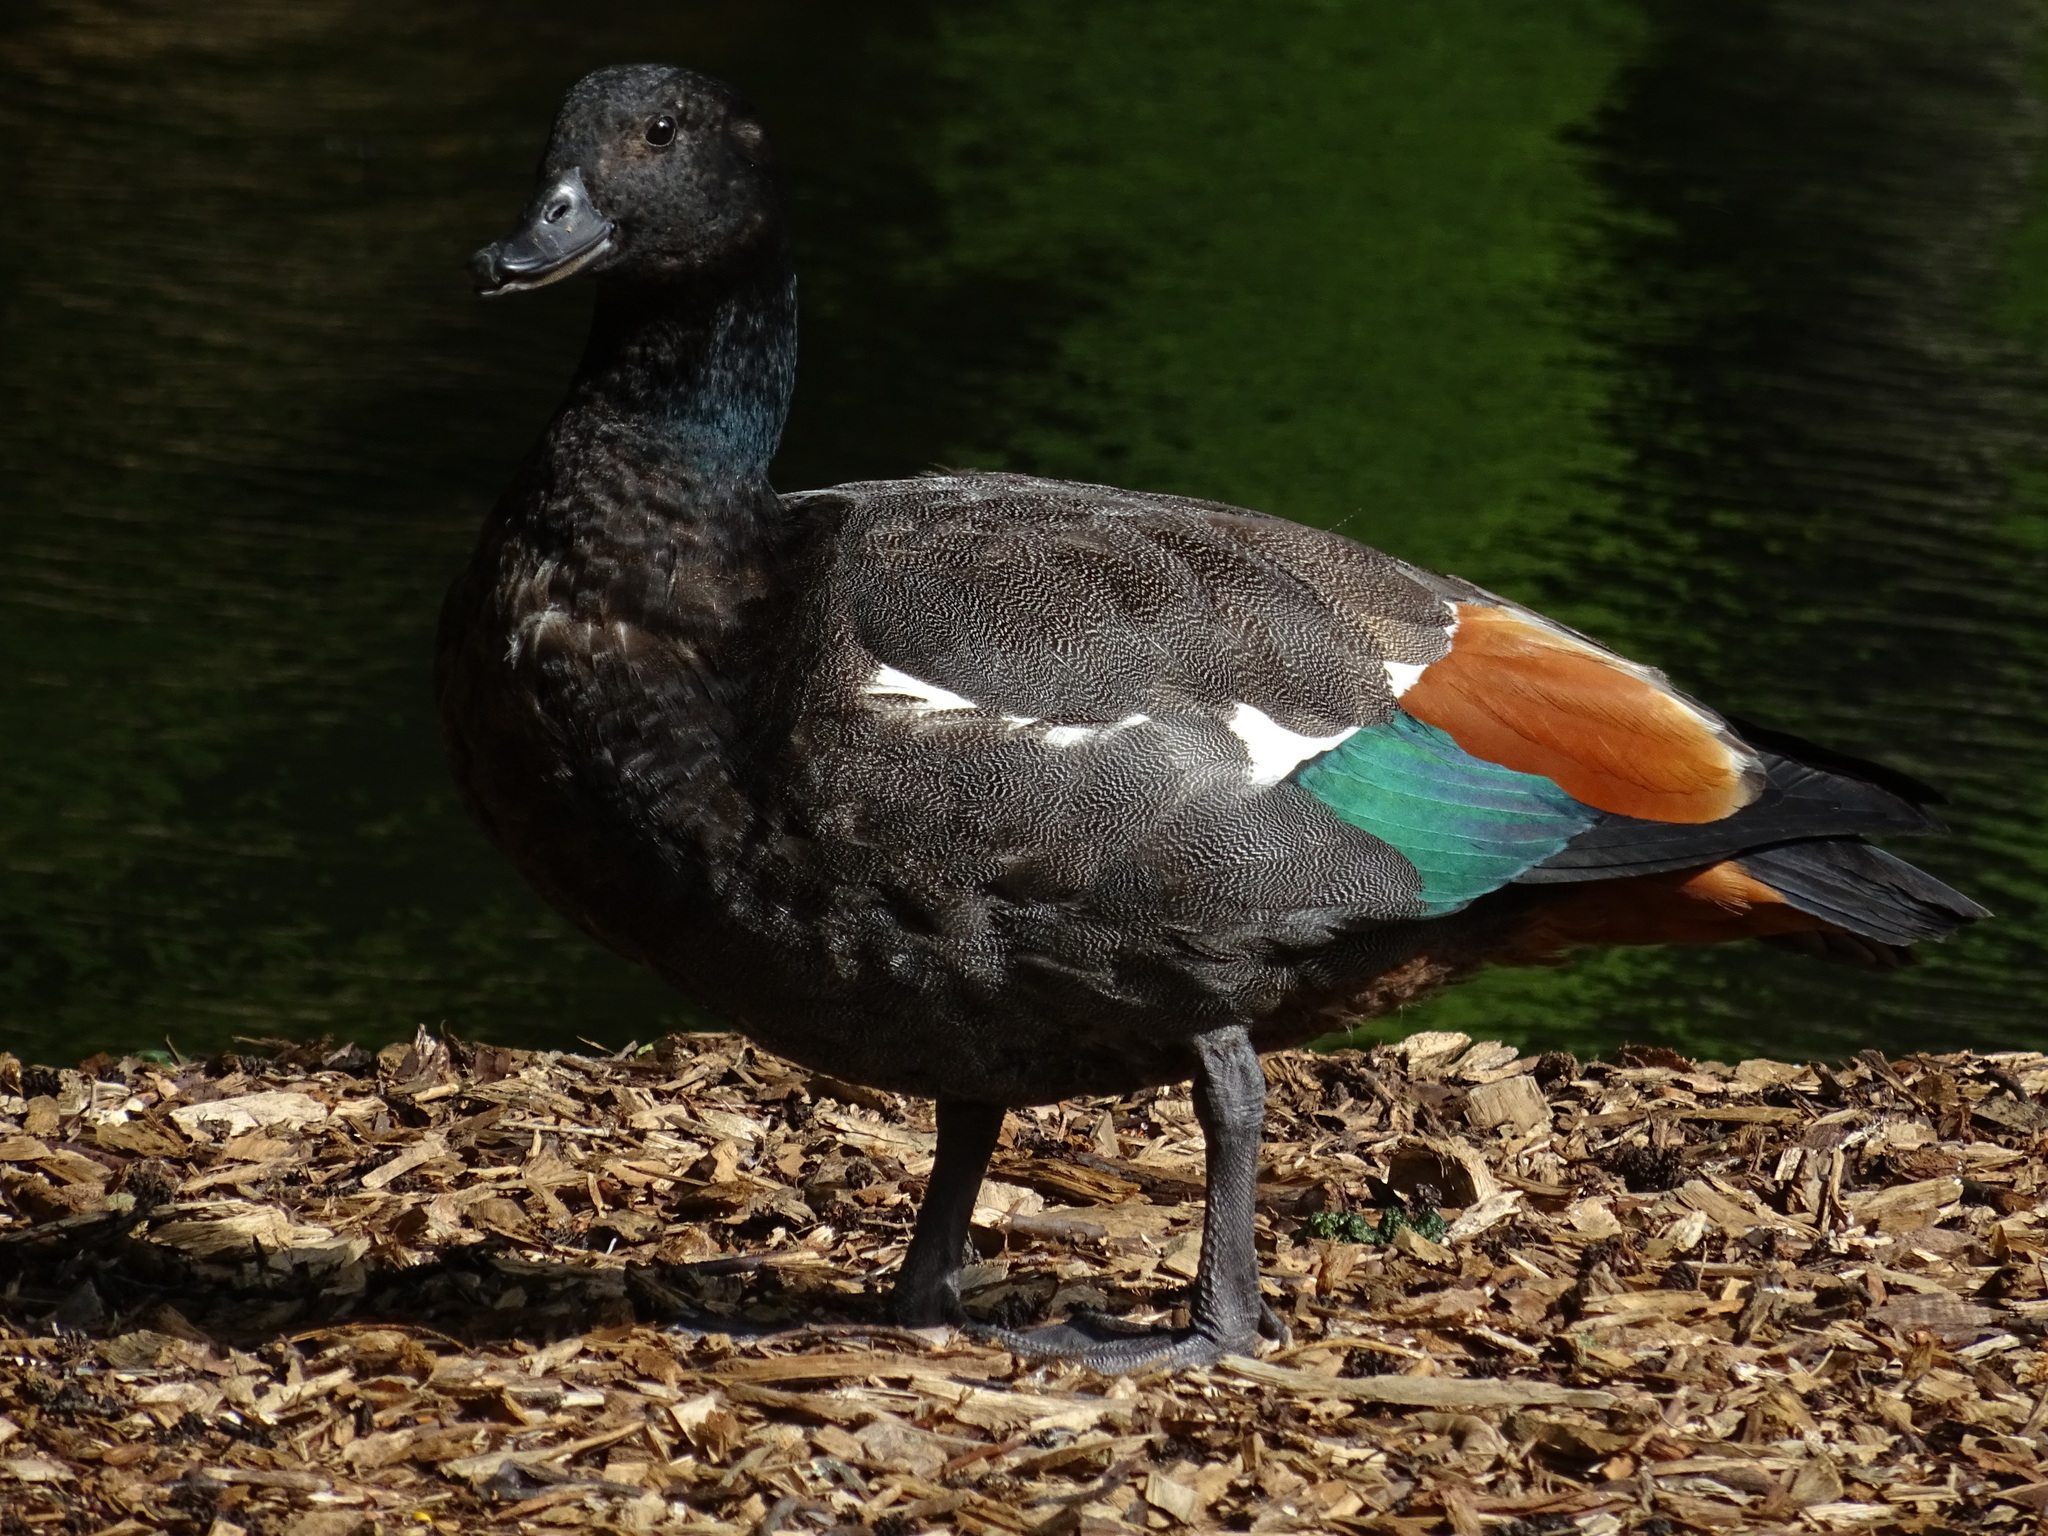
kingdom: Animalia
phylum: Chordata
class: Aves
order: Anseriformes
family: Anatidae
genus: Tadorna
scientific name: Tadorna variegata
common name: Paradise shelduck
